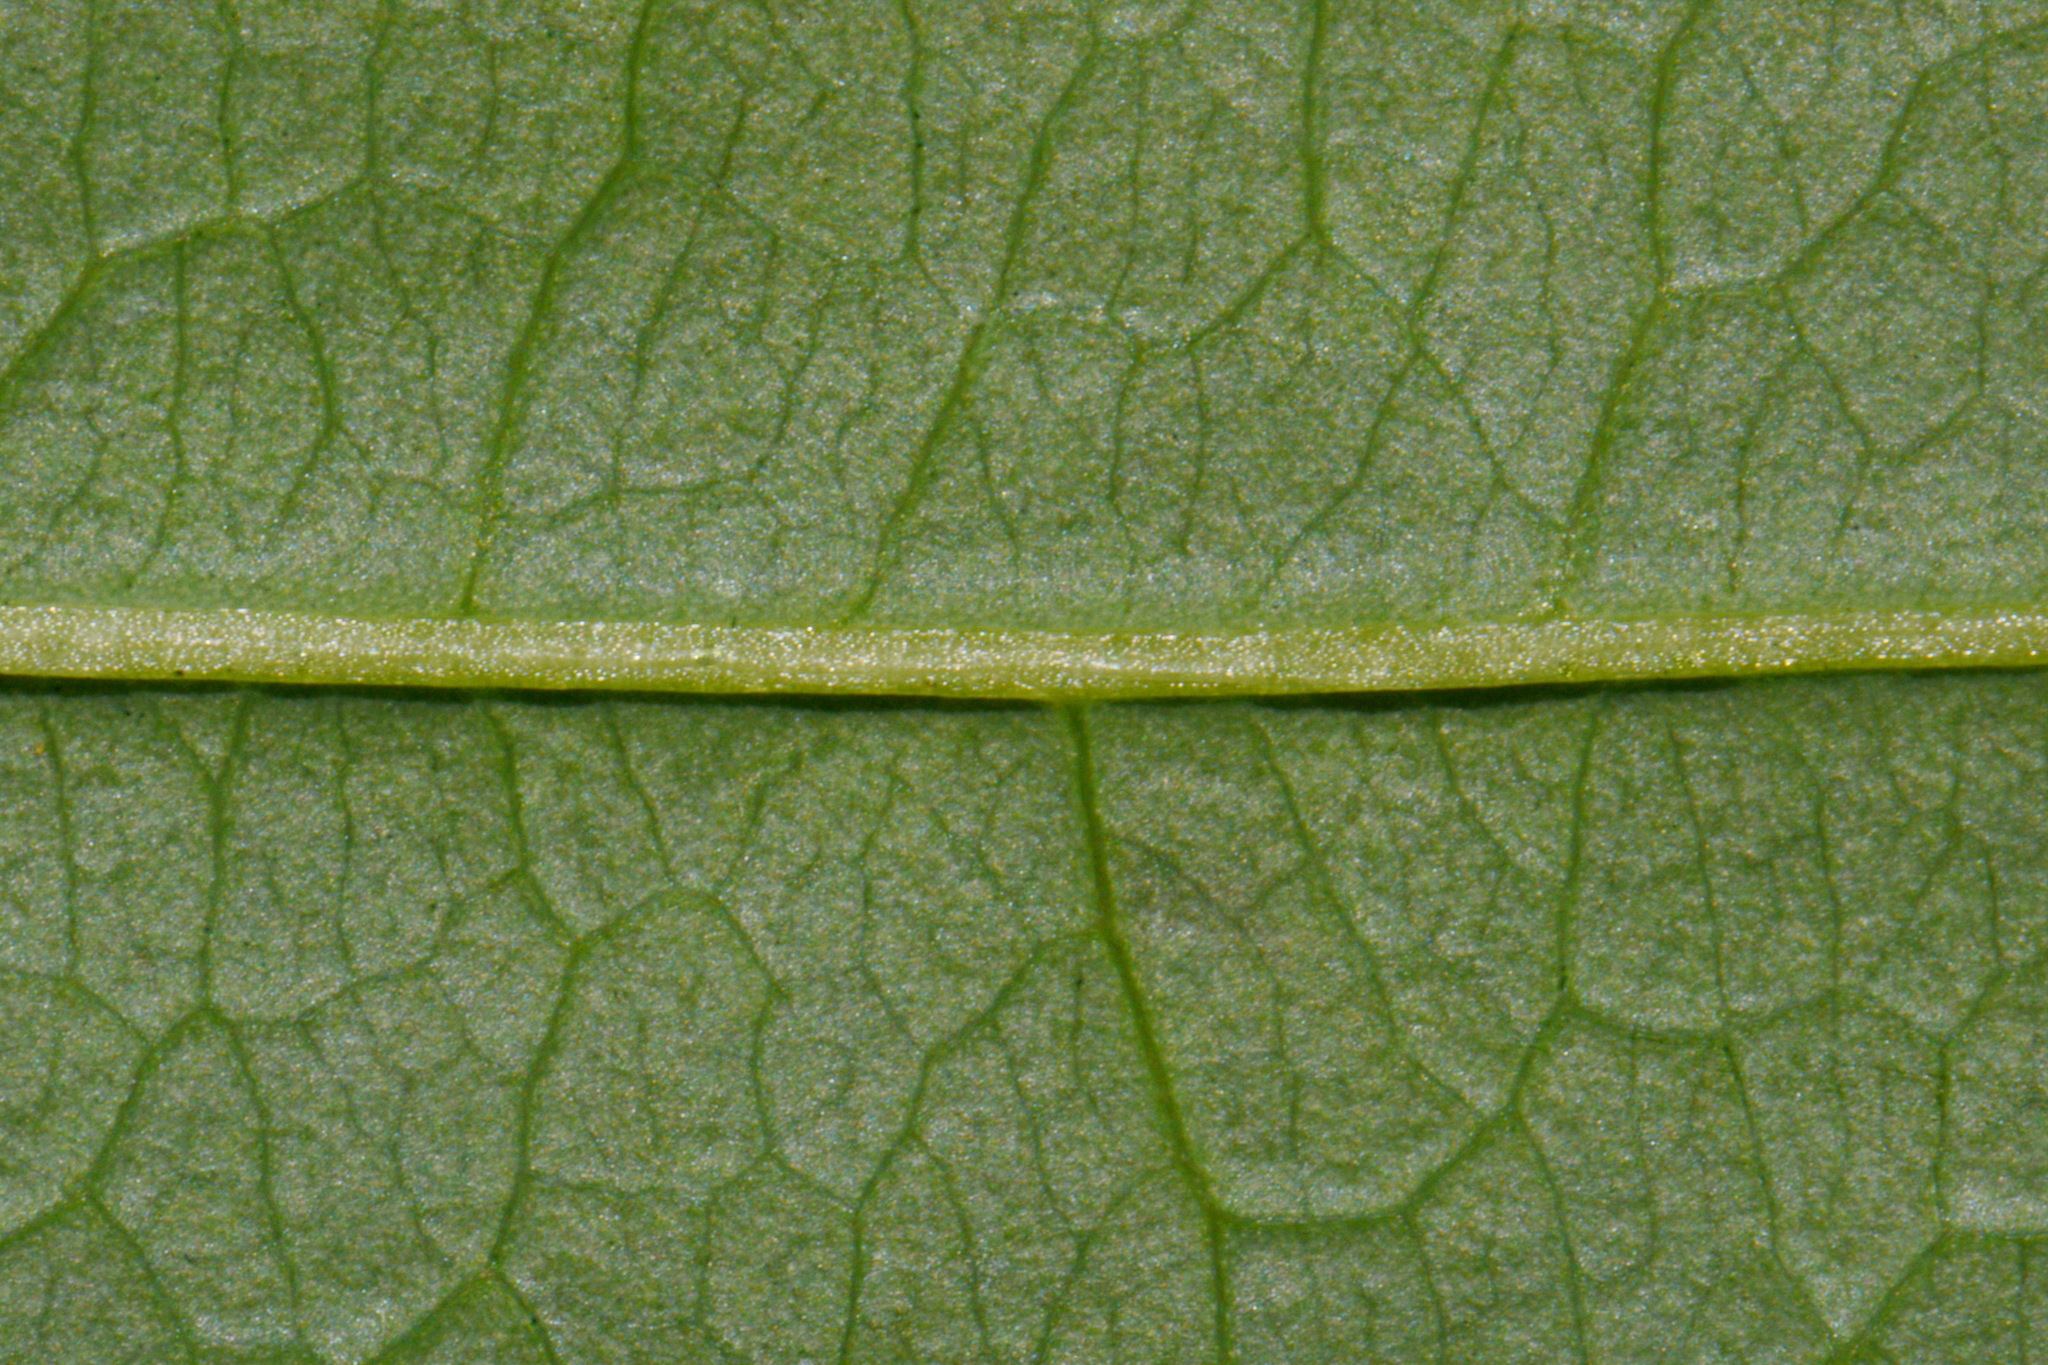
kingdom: Plantae
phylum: Tracheophyta
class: Liliopsida
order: Liliales
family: Smilacaceae
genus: Smilax
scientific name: Smilax herbacea
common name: Jacob's-ladder
